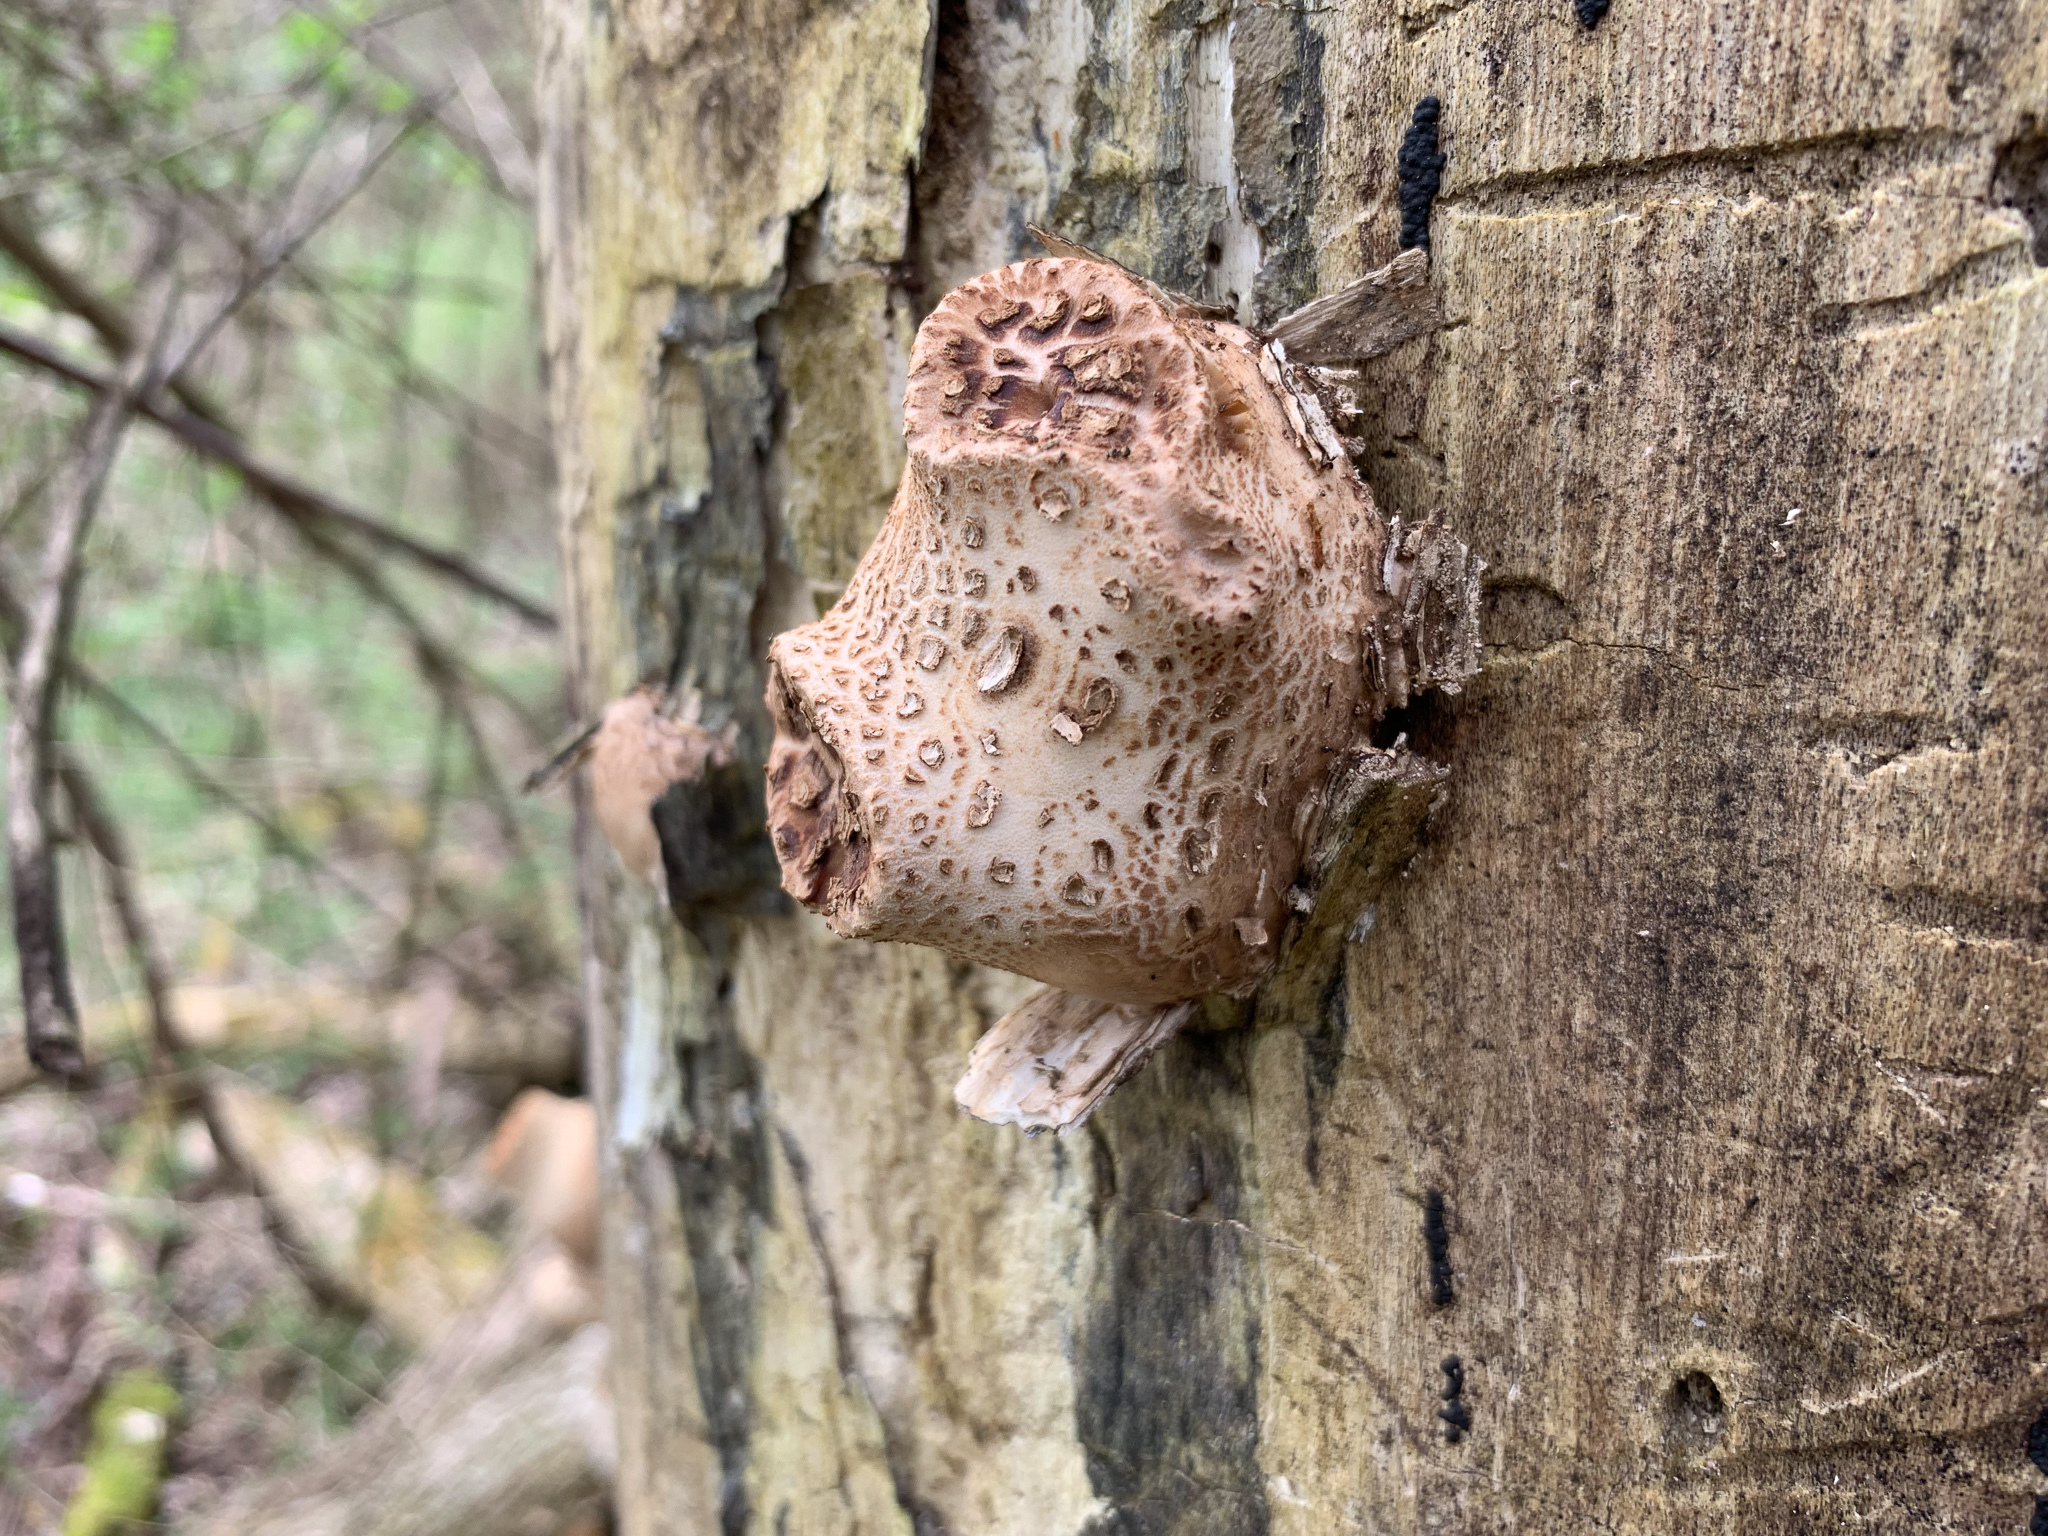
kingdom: Fungi
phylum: Basidiomycota
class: Agaricomycetes
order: Polyporales
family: Polyporaceae
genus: Cerioporus
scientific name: Cerioporus squamosus
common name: Dryad's saddle
